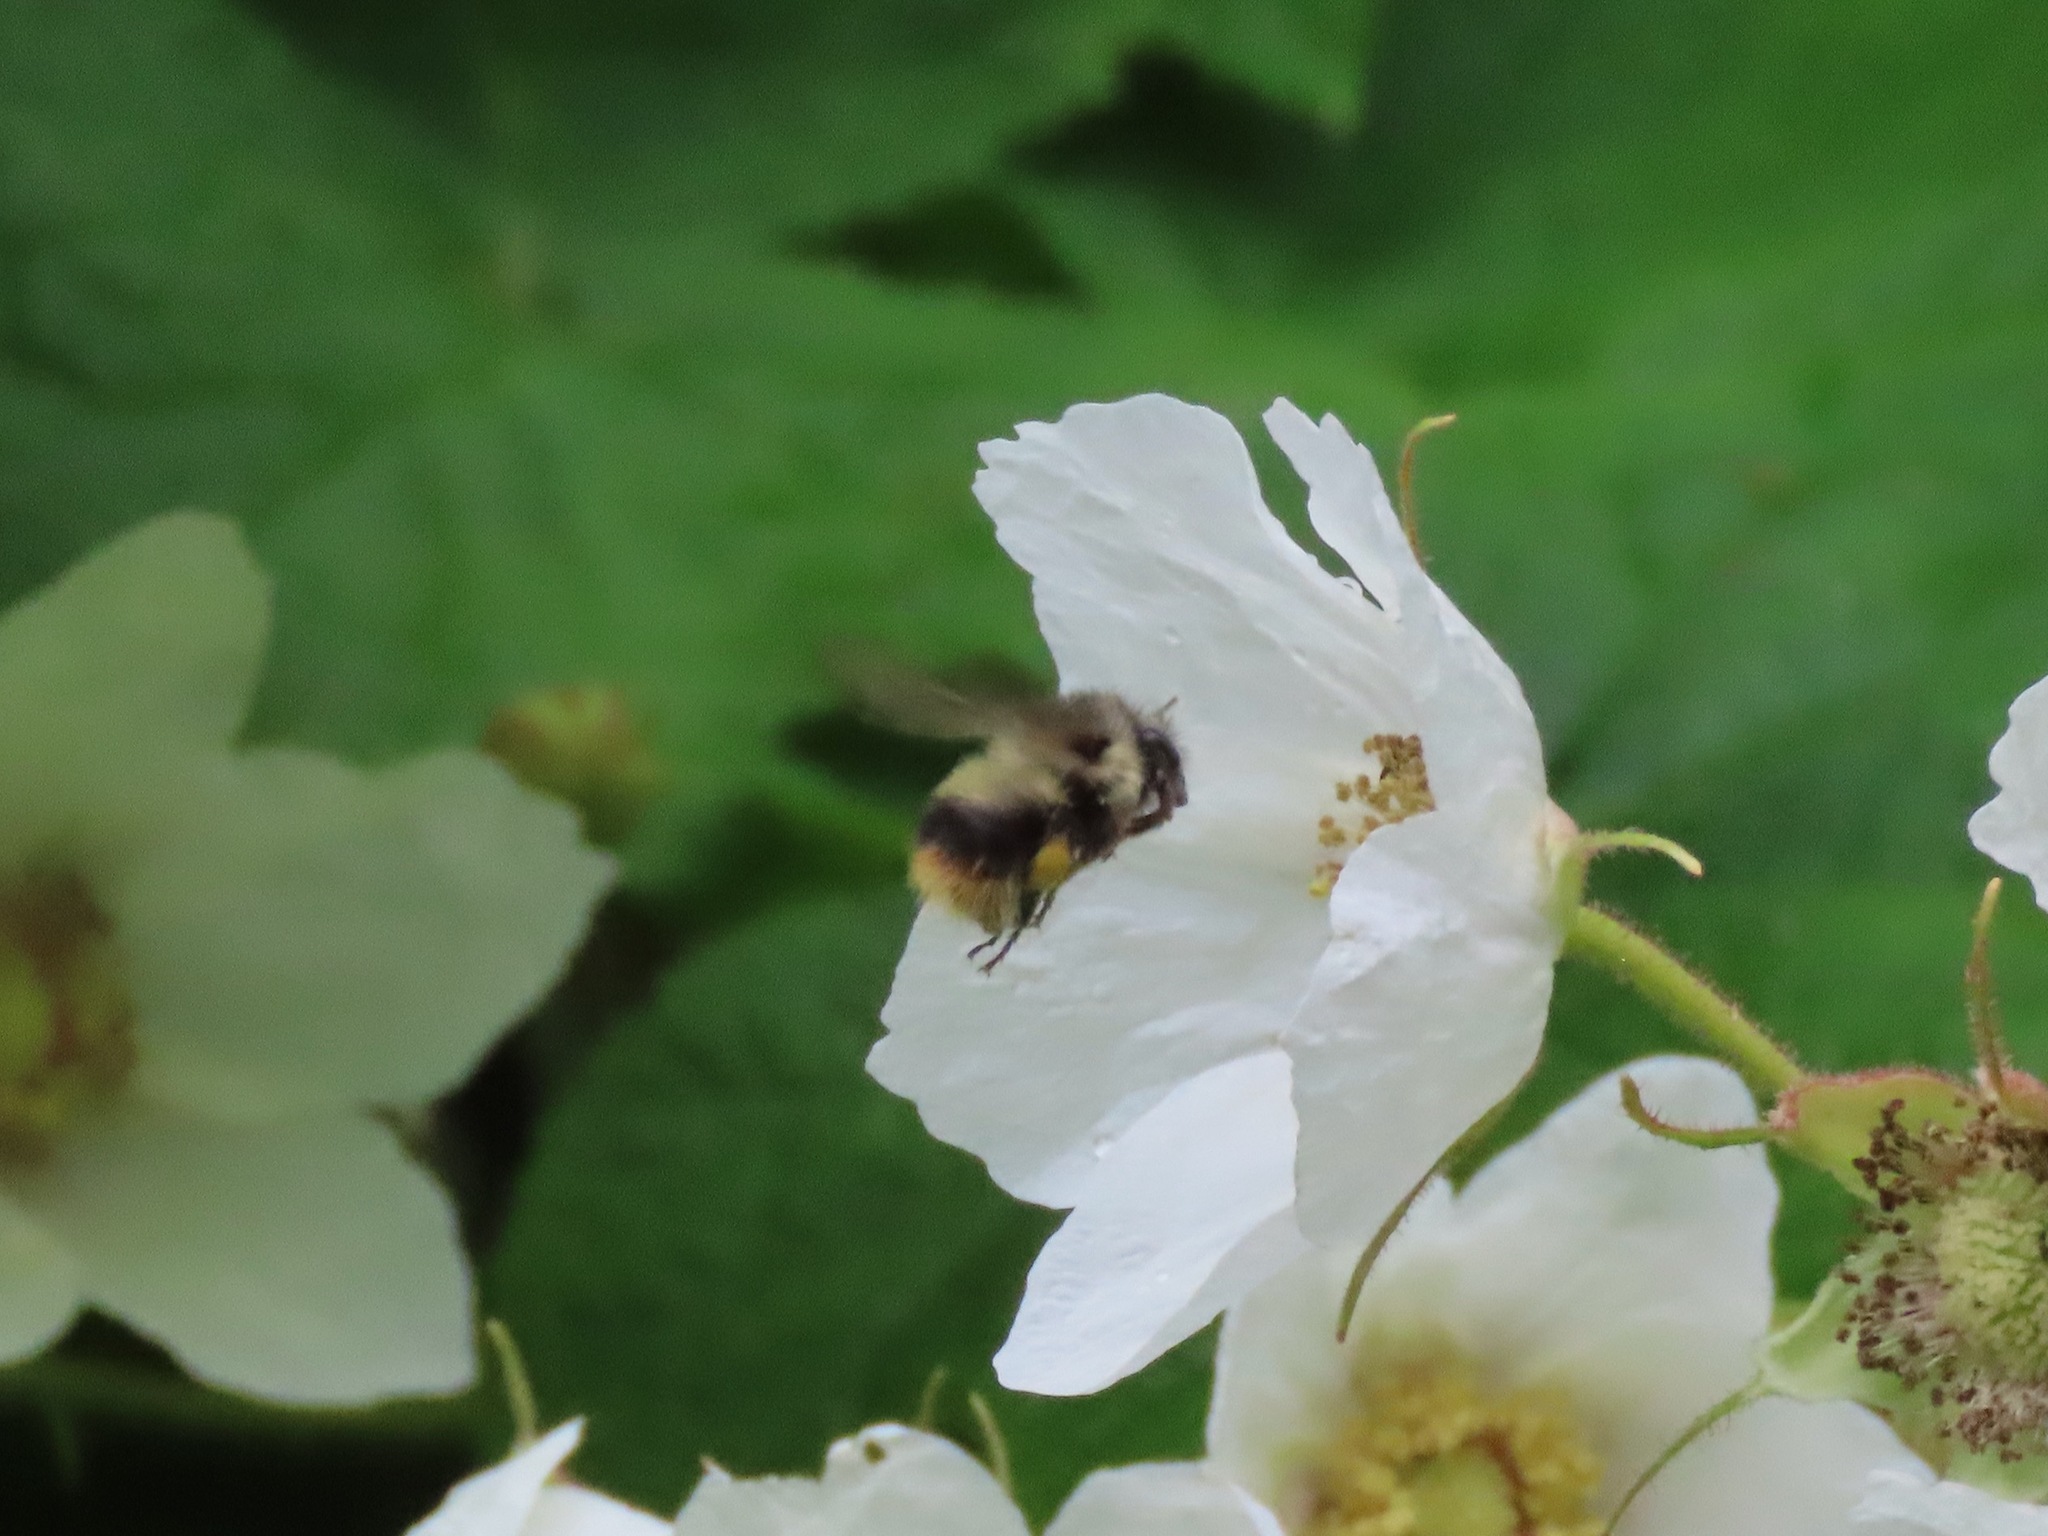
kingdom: Animalia
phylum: Arthropoda
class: Insecta
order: Hymenoptera
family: Apidae
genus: Bombus
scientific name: Bombus mixtus
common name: Fuzzy-horned bumble bee
